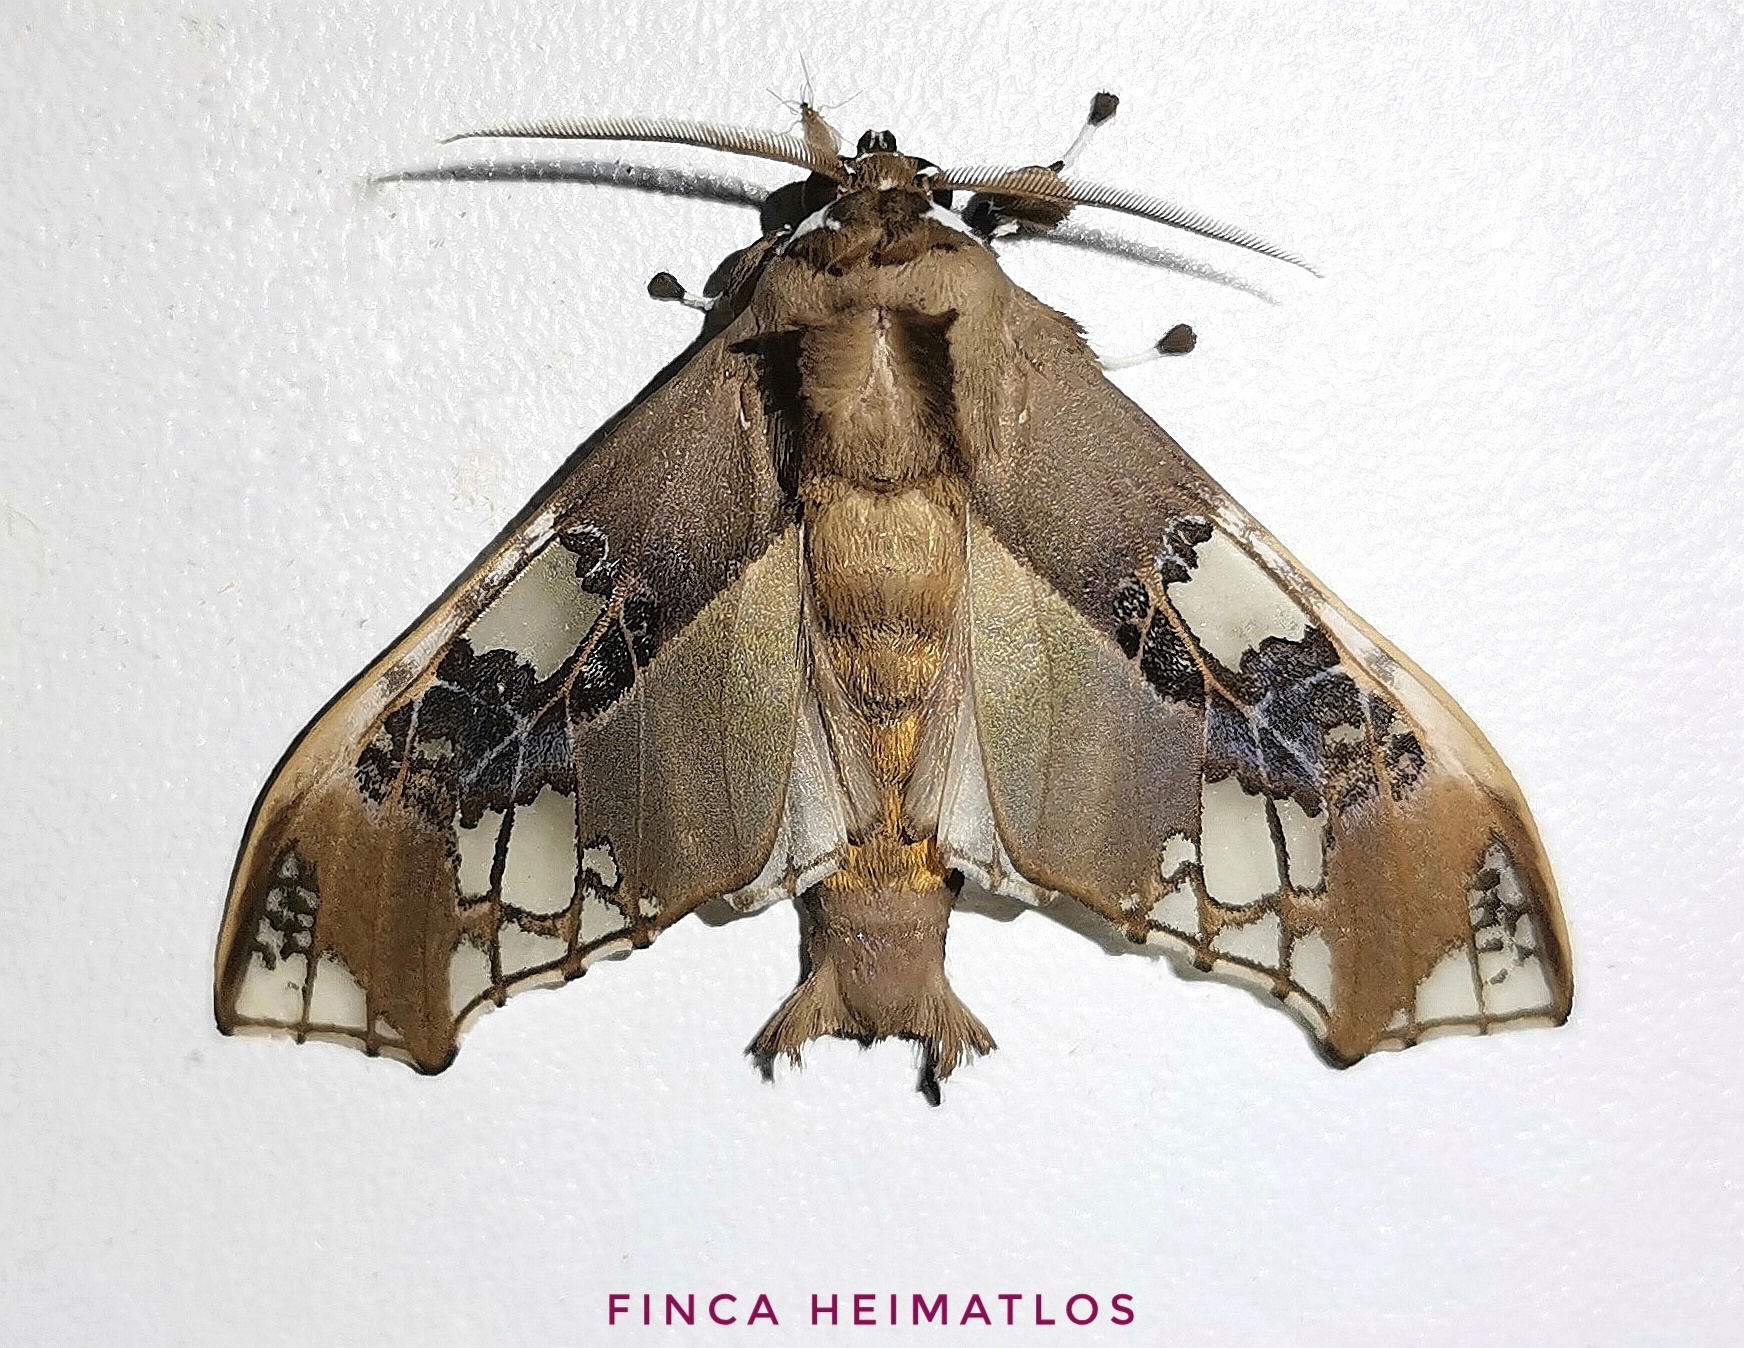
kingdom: Animalia
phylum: Arthropoda
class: Insecta
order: Lepidoptera
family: Erebidae
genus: Parathyris
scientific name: Parathyris cedonulli
